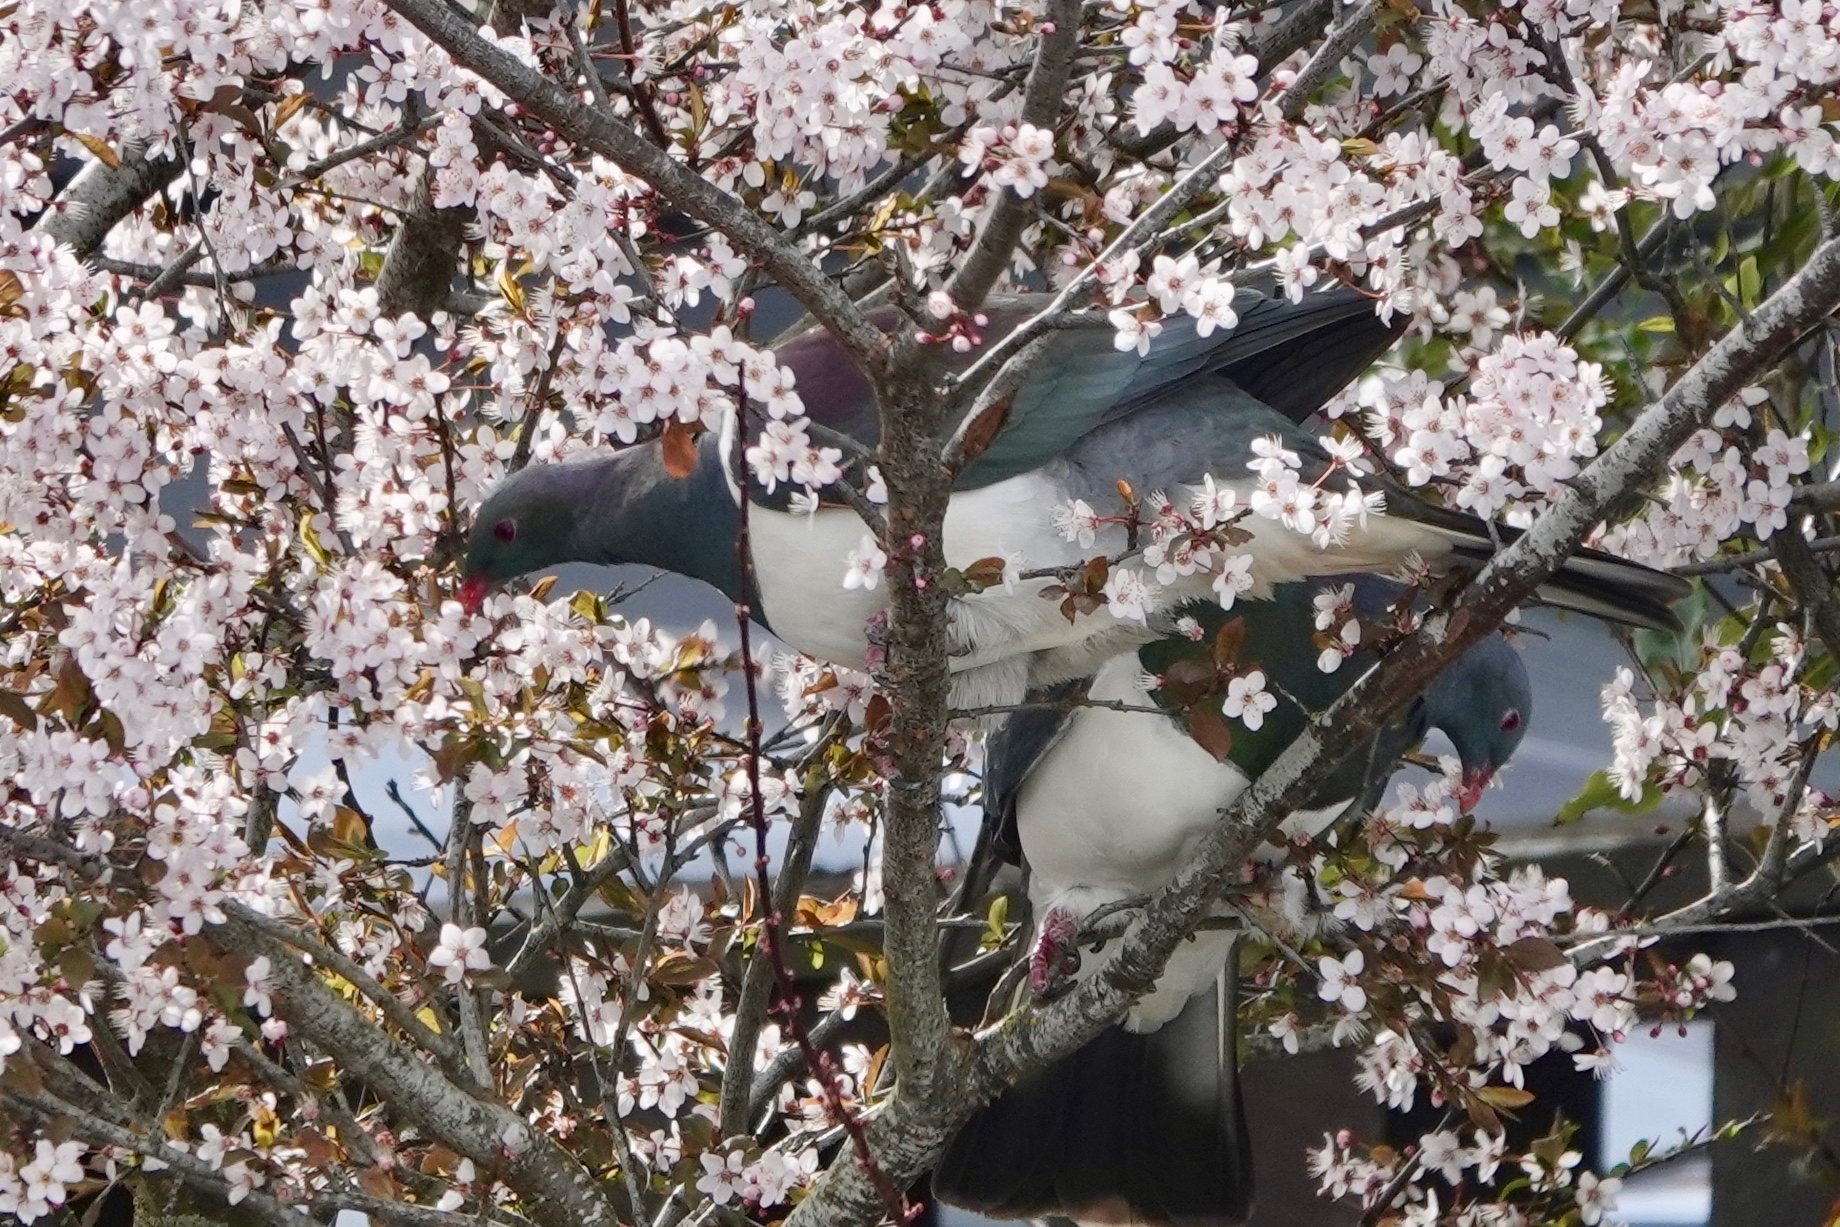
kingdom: Animalia
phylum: Chordata
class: Aves
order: Columbiformes
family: Columbidae
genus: Hemiphaga
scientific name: Hemiphaga novaeseelandiae
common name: New zealand pigeon
